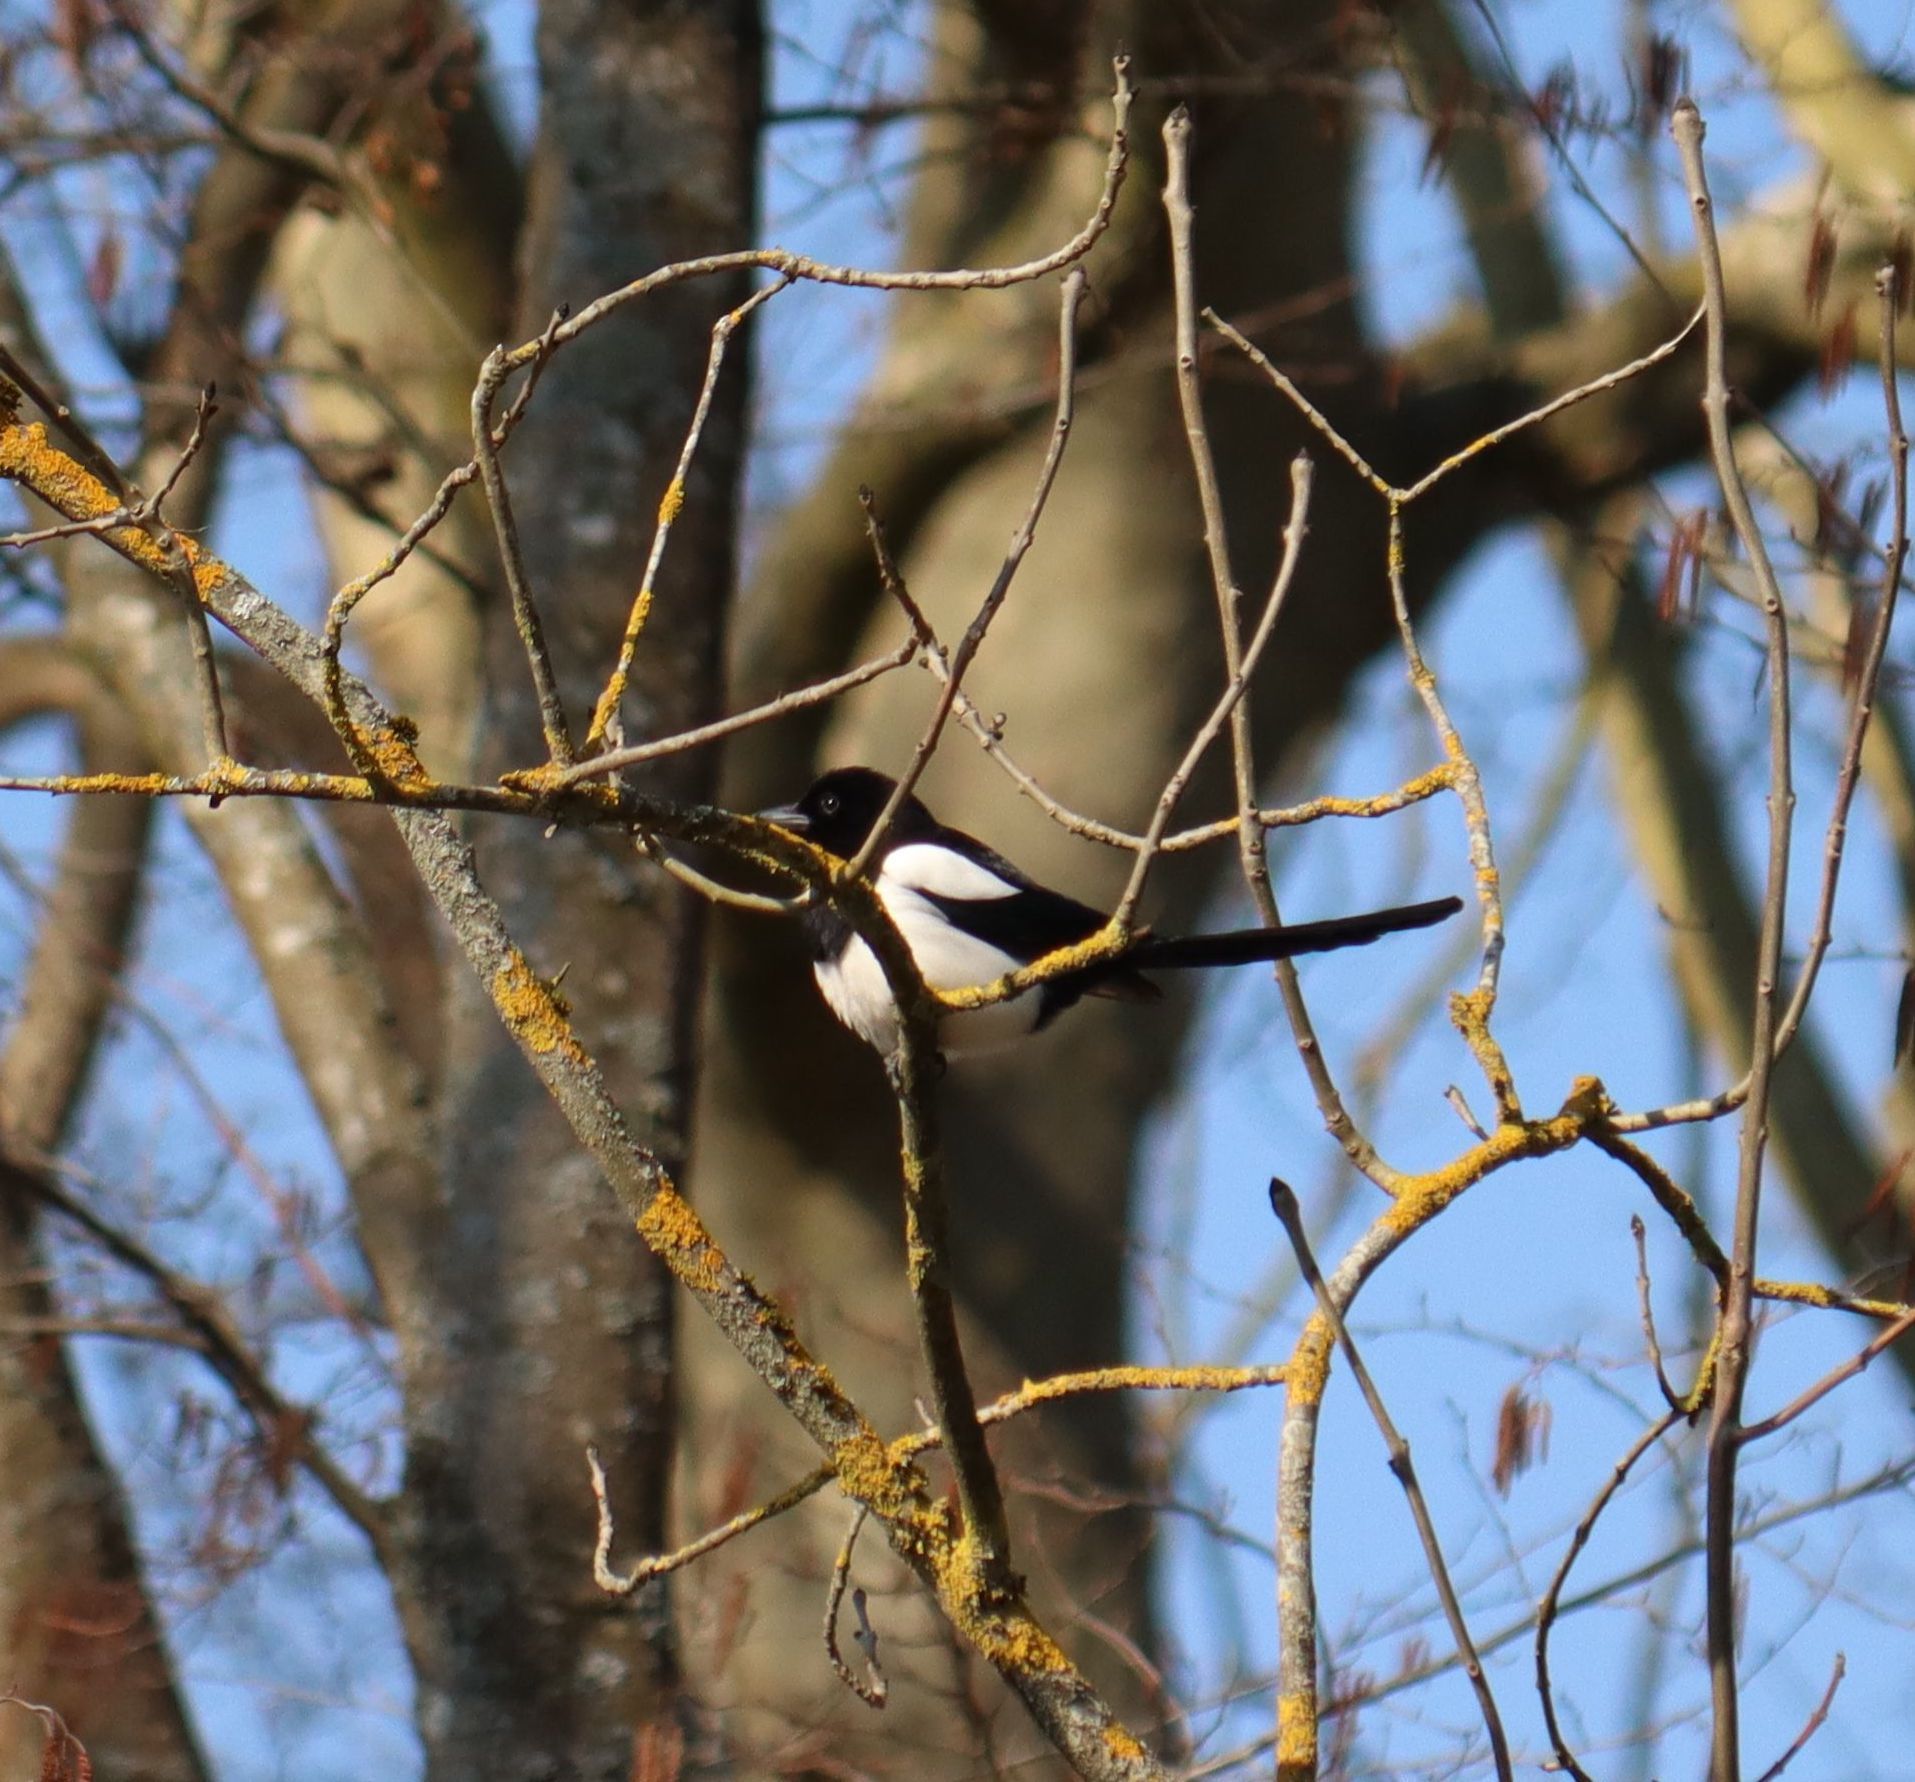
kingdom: Animalia
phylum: Chordata
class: Aves
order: Passeriformes
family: Corvidae
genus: Pica
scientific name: Pica pica
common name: Eurasian magpie
